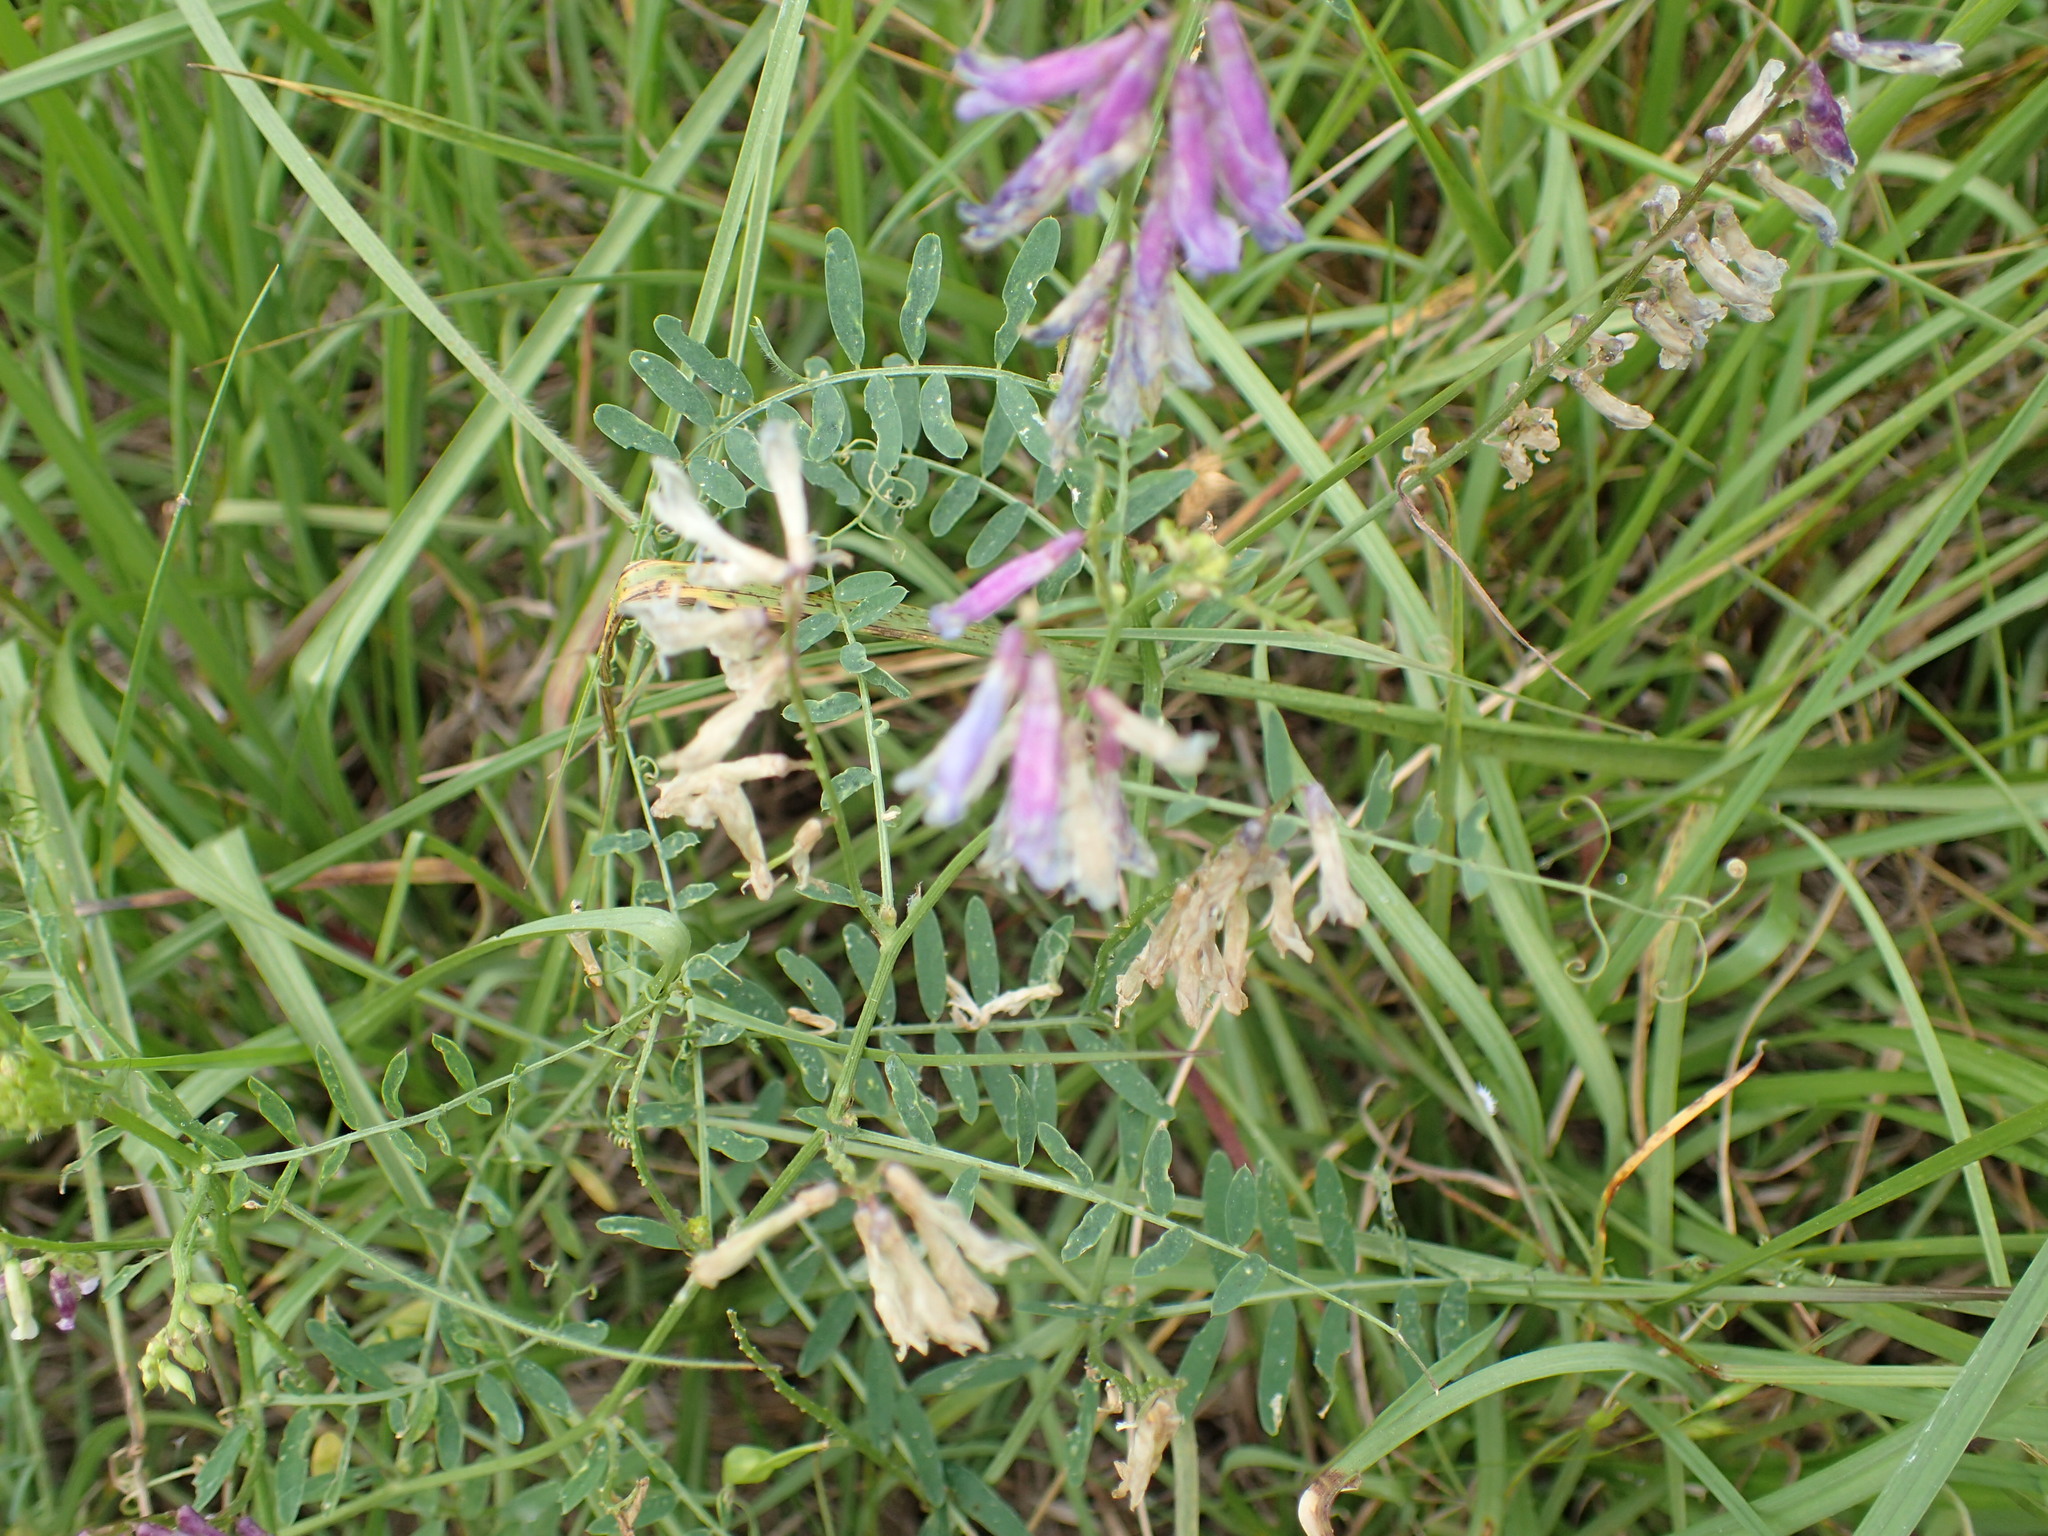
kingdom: Plantae
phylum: Tracheophyta
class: Magnoliopsida
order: Fabales
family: Fabaceae
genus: Vicia
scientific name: Vicia villosa
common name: Fodder vetch
